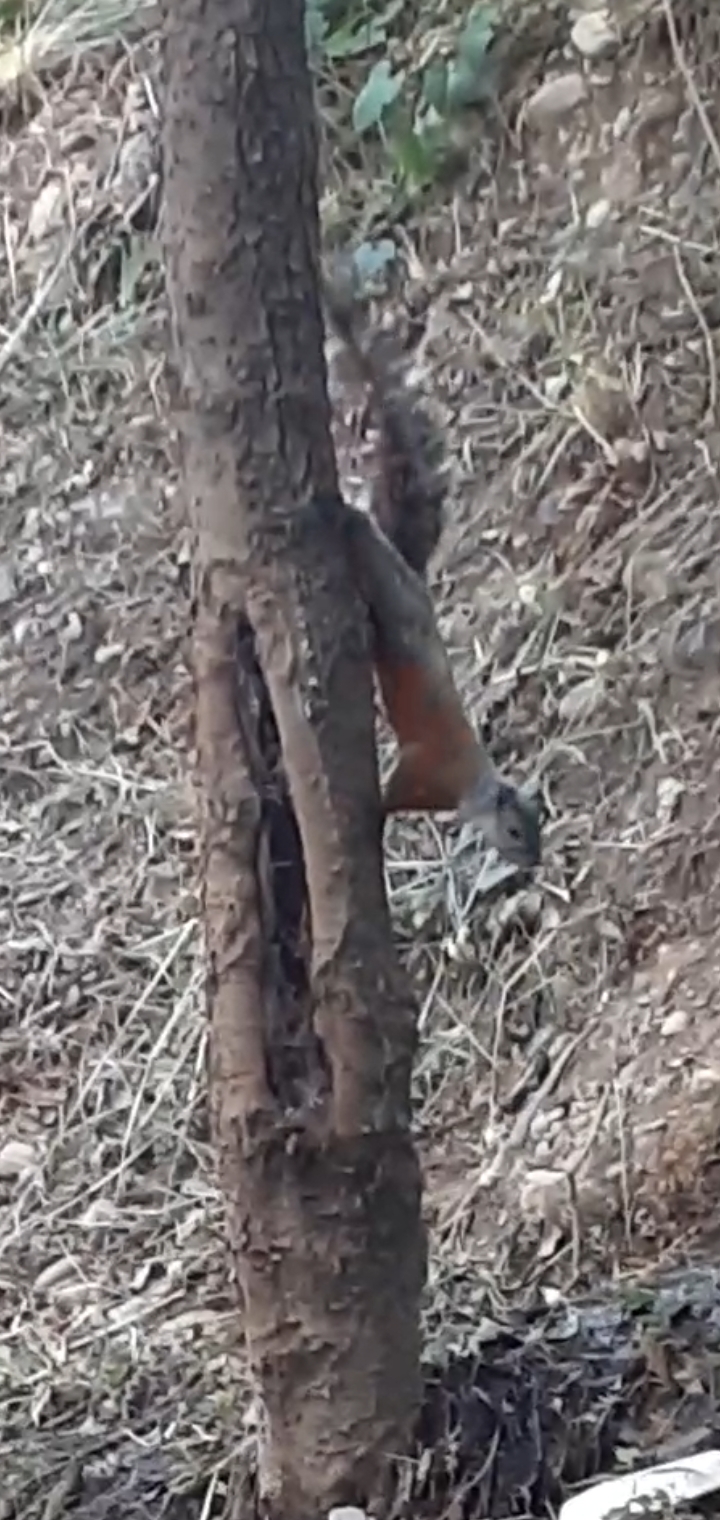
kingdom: Animalia
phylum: Chordata
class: Mammalia
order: Rodentia
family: Sciuridae
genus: Sciurus
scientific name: Sciurus aureogaster
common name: Red-bellied squirrel
